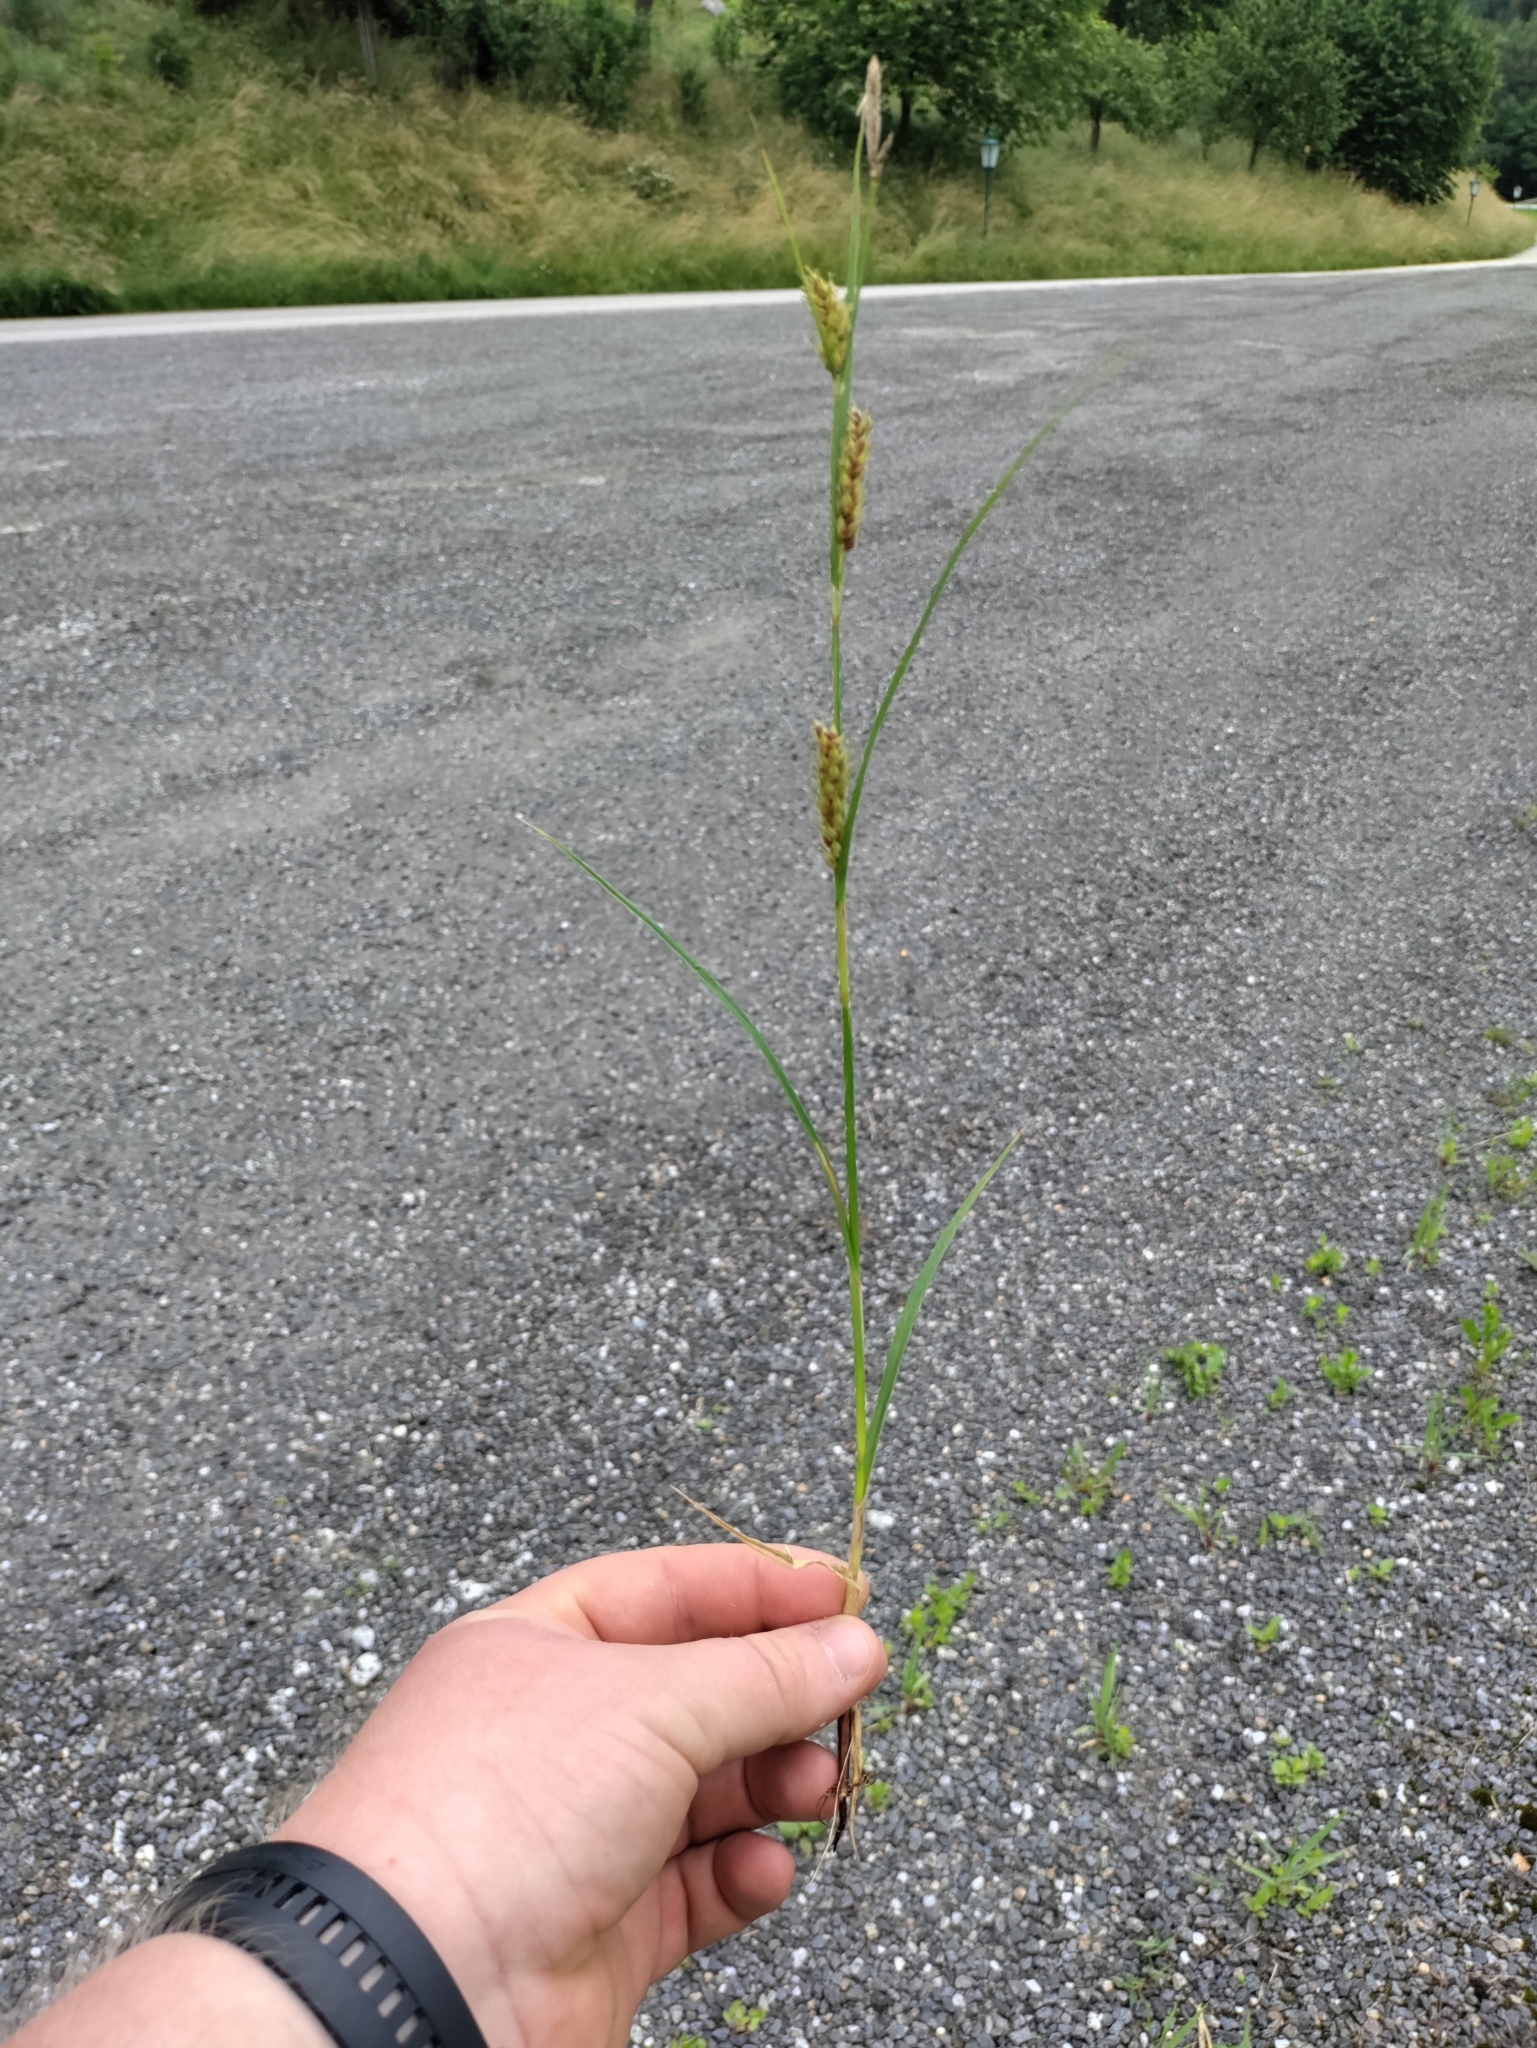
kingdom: Plantae
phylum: Tracheophyta
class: Liliopsida
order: Poales
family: Cyperaceae
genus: Carex
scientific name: Carex hirta
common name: Hairy sedge
